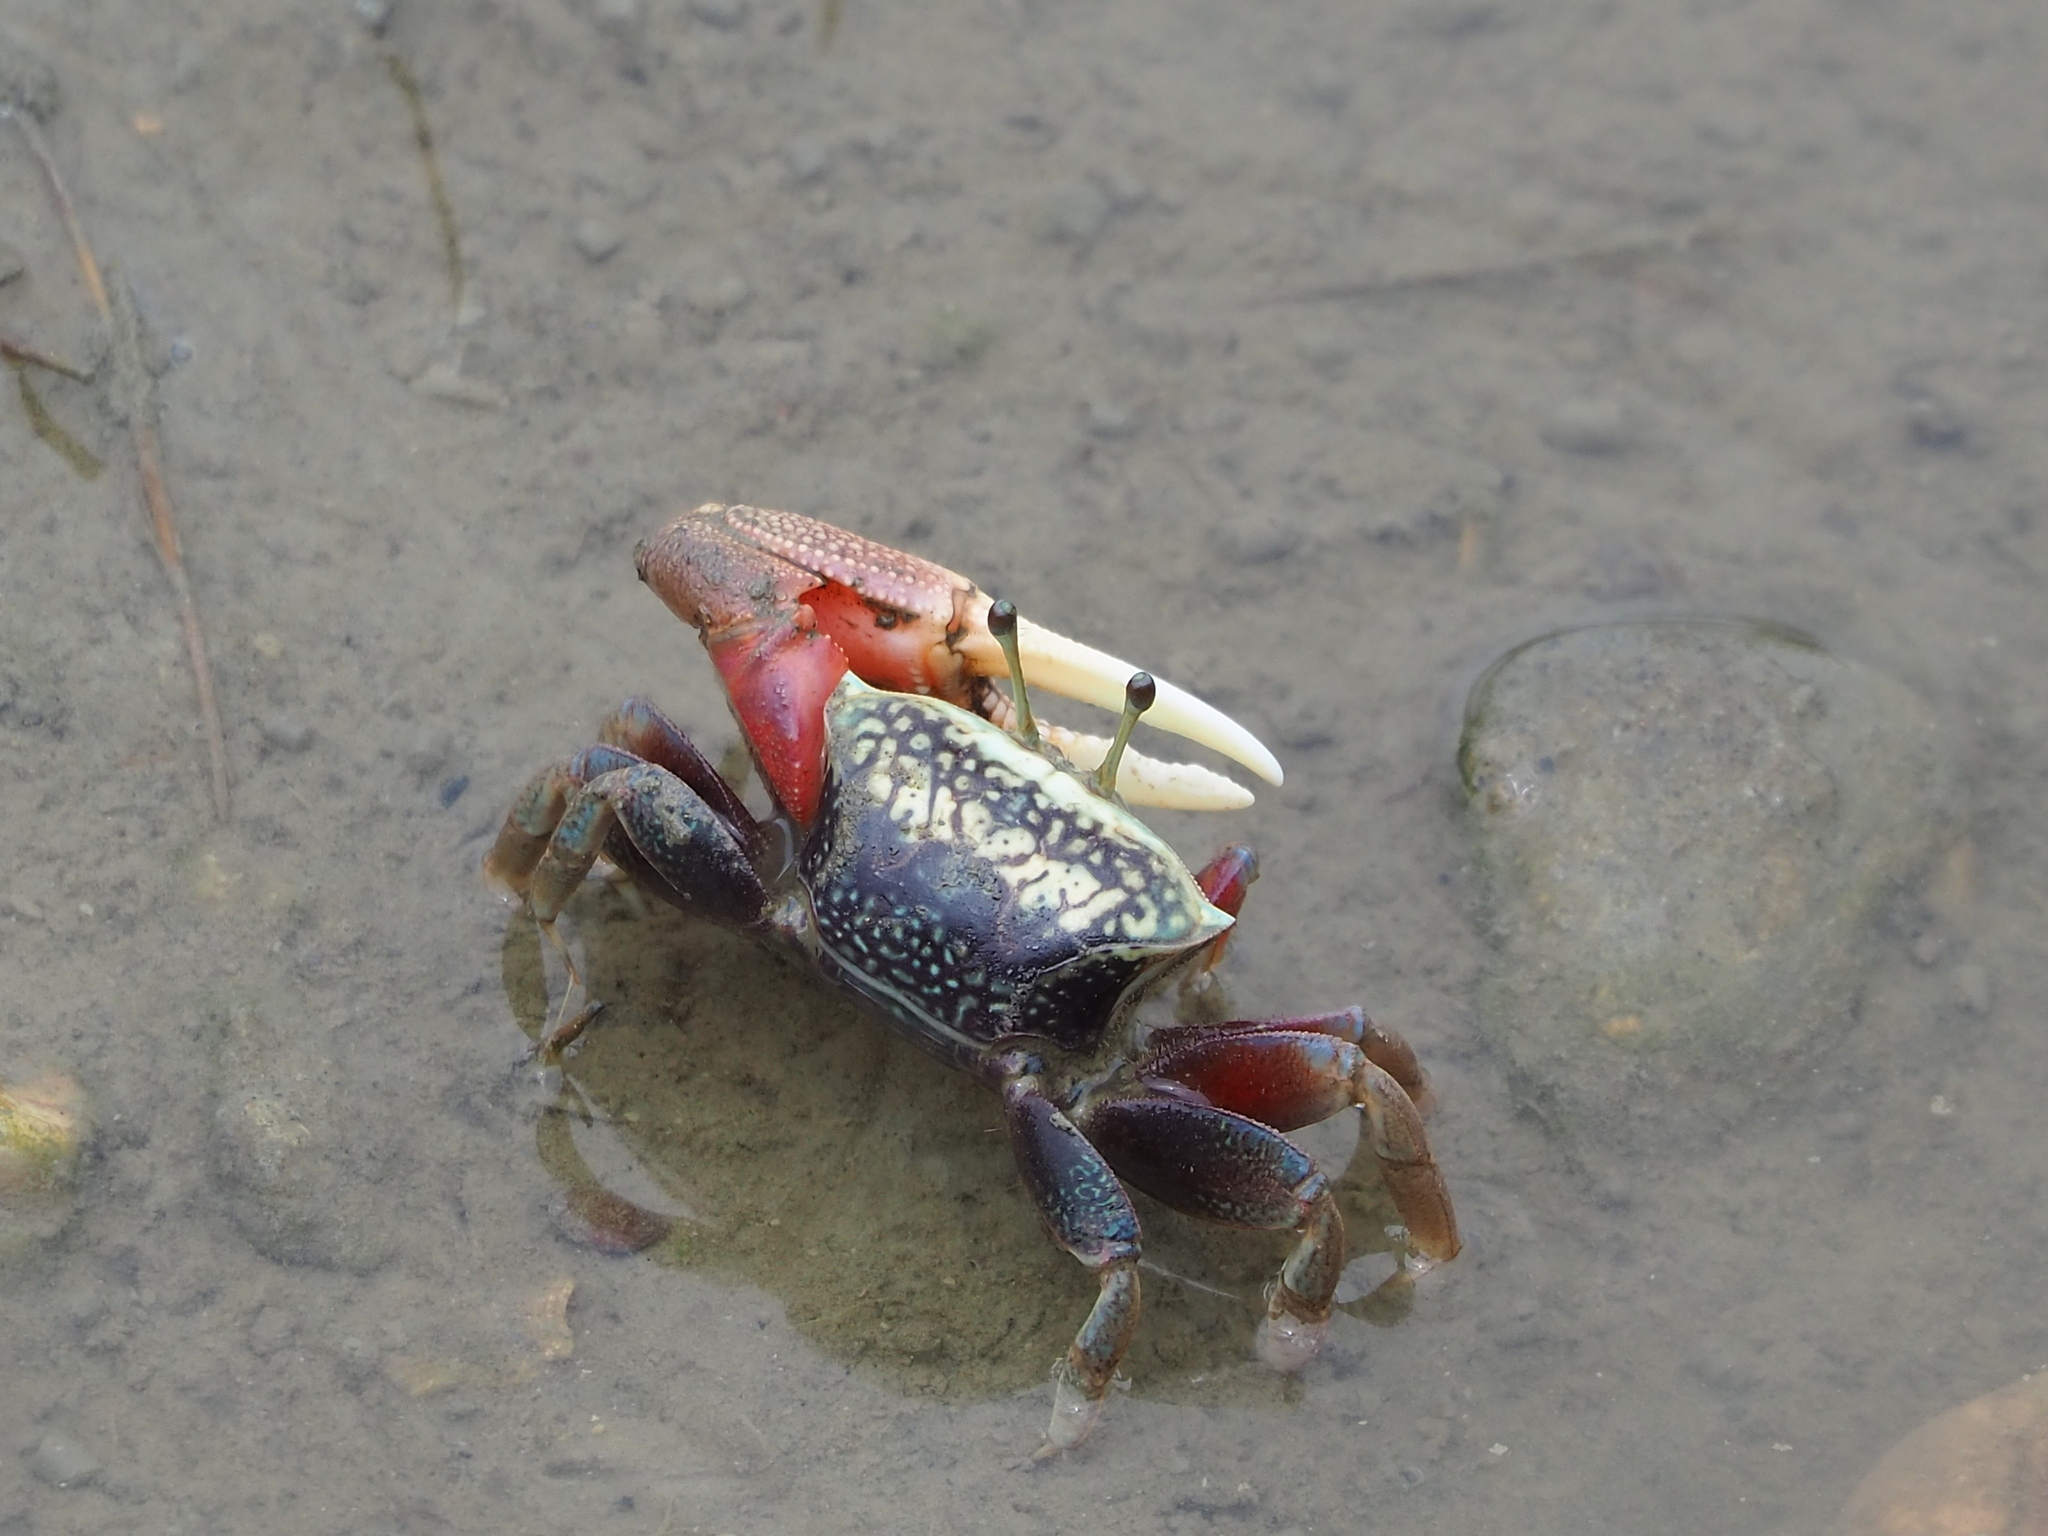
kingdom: Animalia
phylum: Arthropoda
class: Malacostraca
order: Decapoda
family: Ocypodidae
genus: Tubuca
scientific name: Tubuca arcuata
